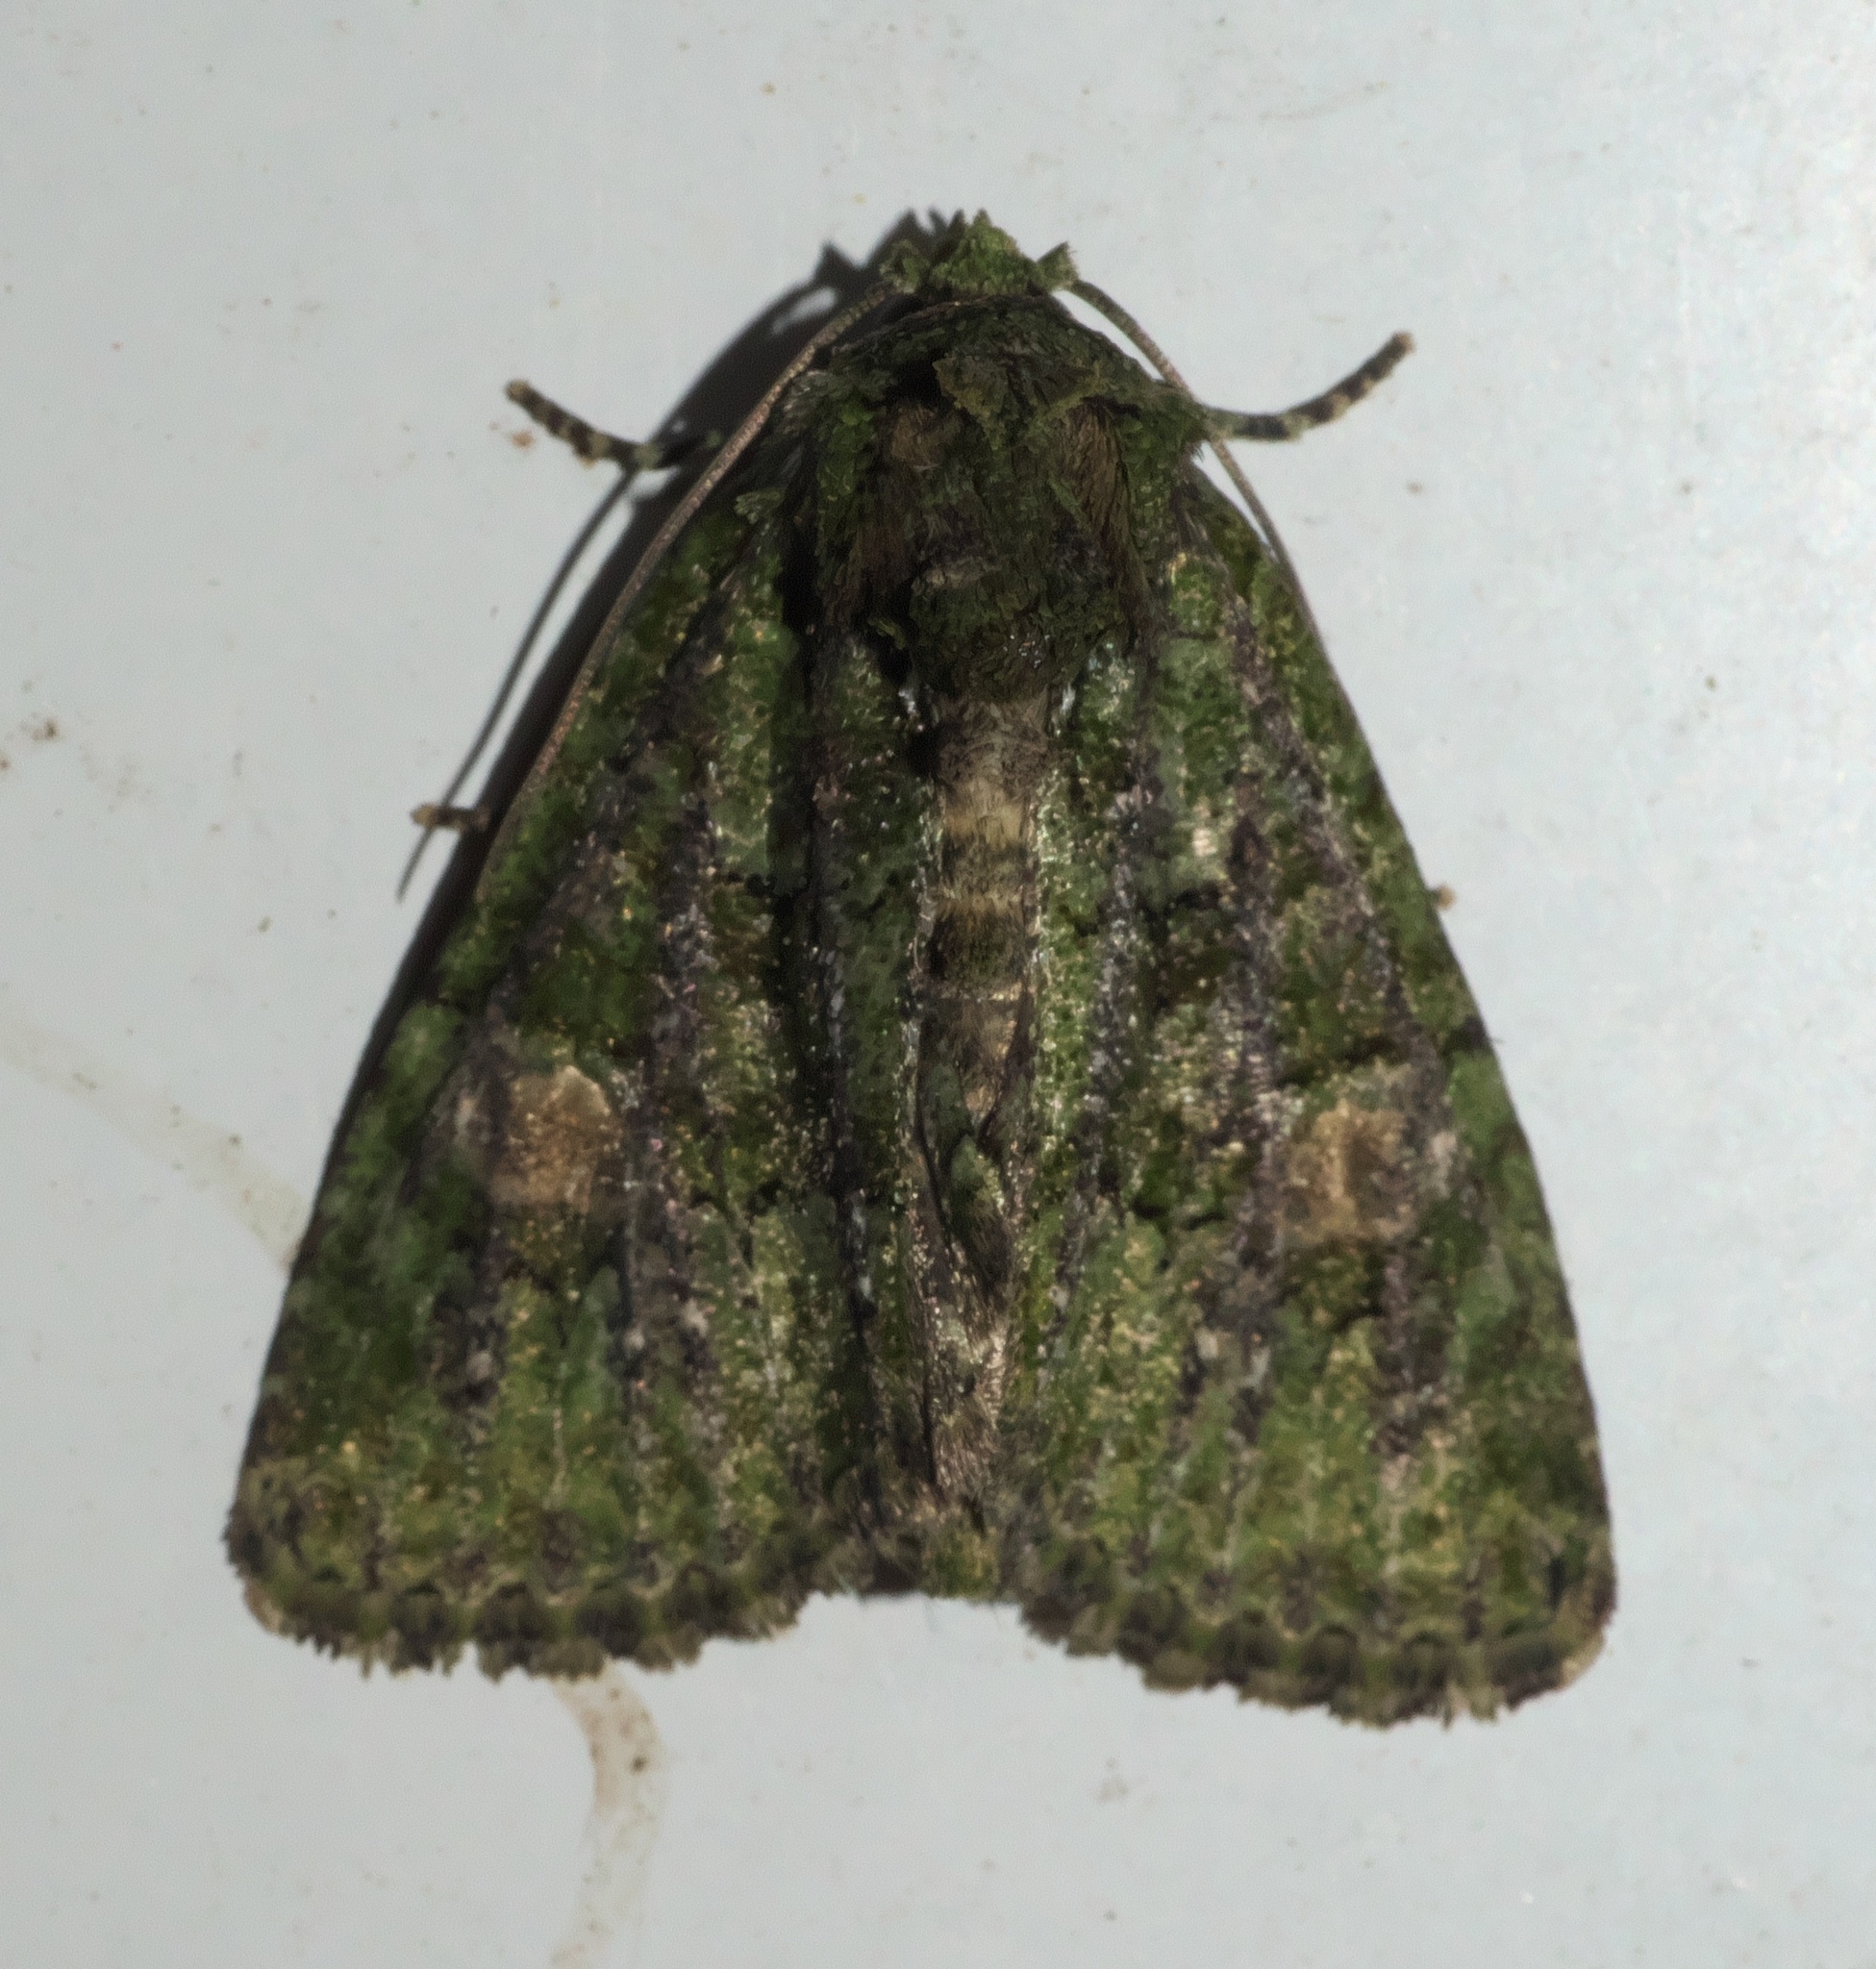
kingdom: Animalia
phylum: Arthropoda
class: Insecta
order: Lepidoptera
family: Noctuidae
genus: Phosphila
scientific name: Phosphila miselioides
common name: Spotted phosphila moth
